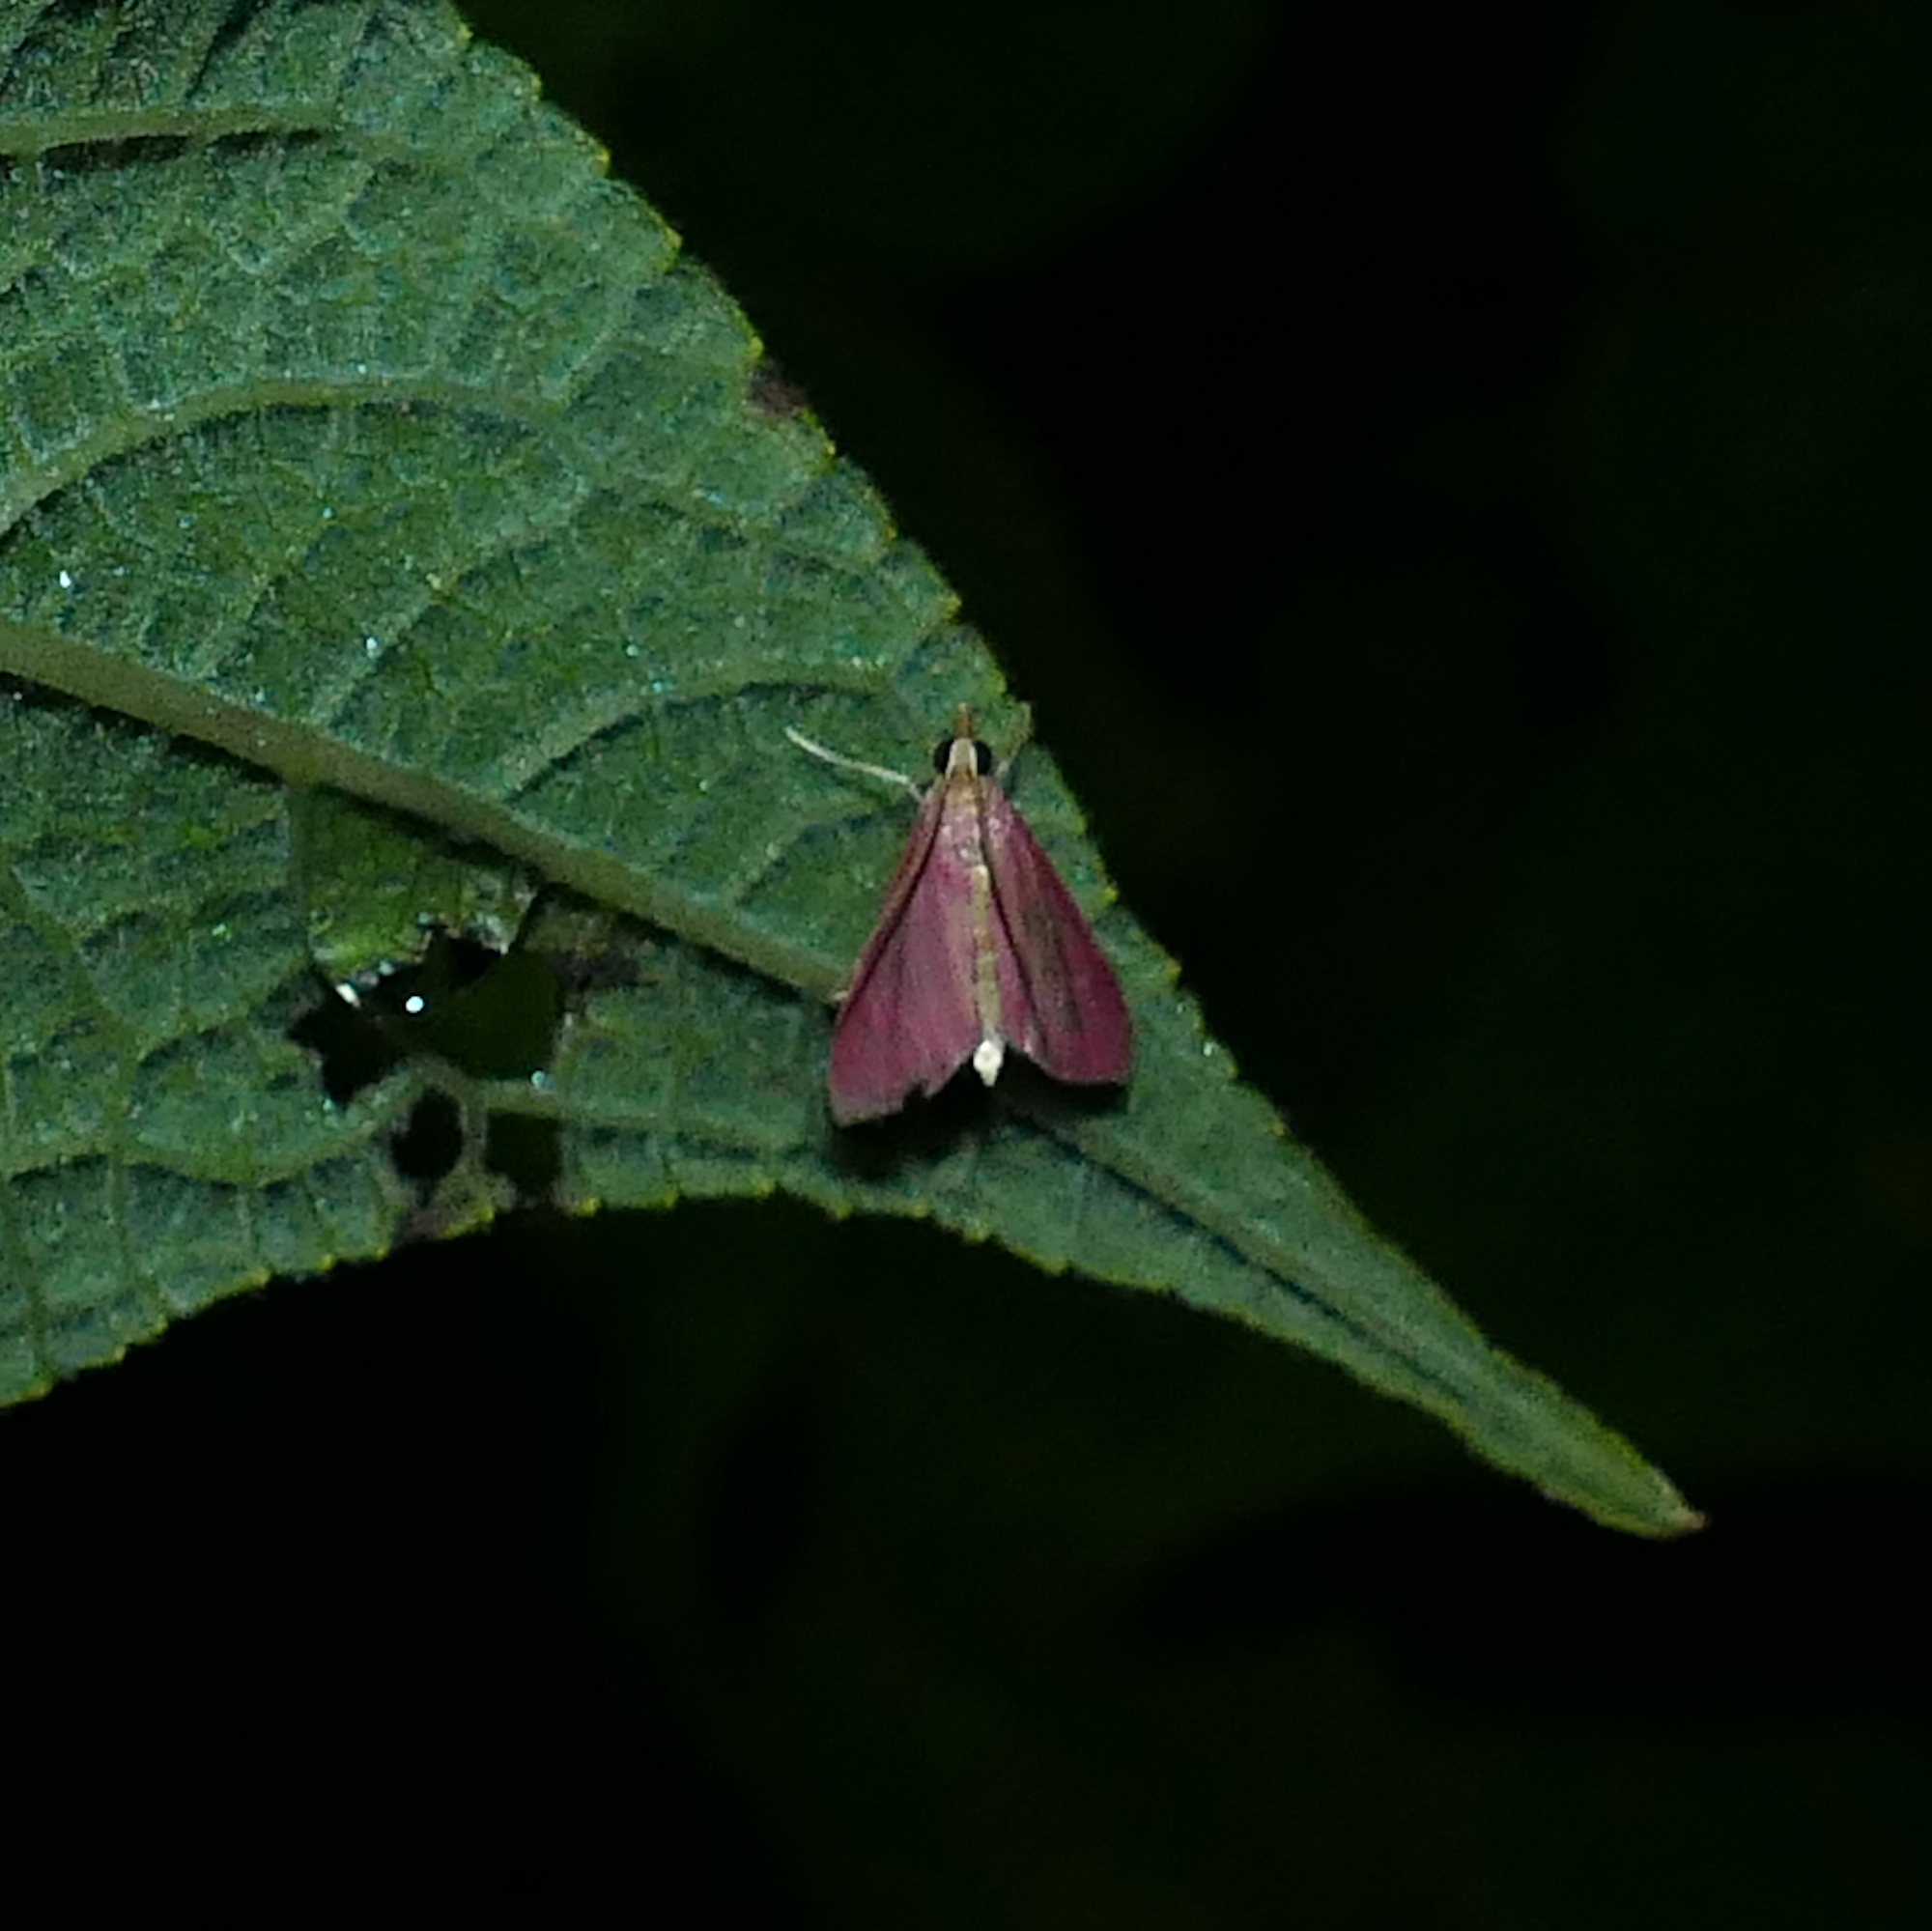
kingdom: Animalia
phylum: Arthropoda
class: Insecta
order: Lepidoptera
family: Crambidae
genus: Pyrausta
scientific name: Pyrausta inornatalis
